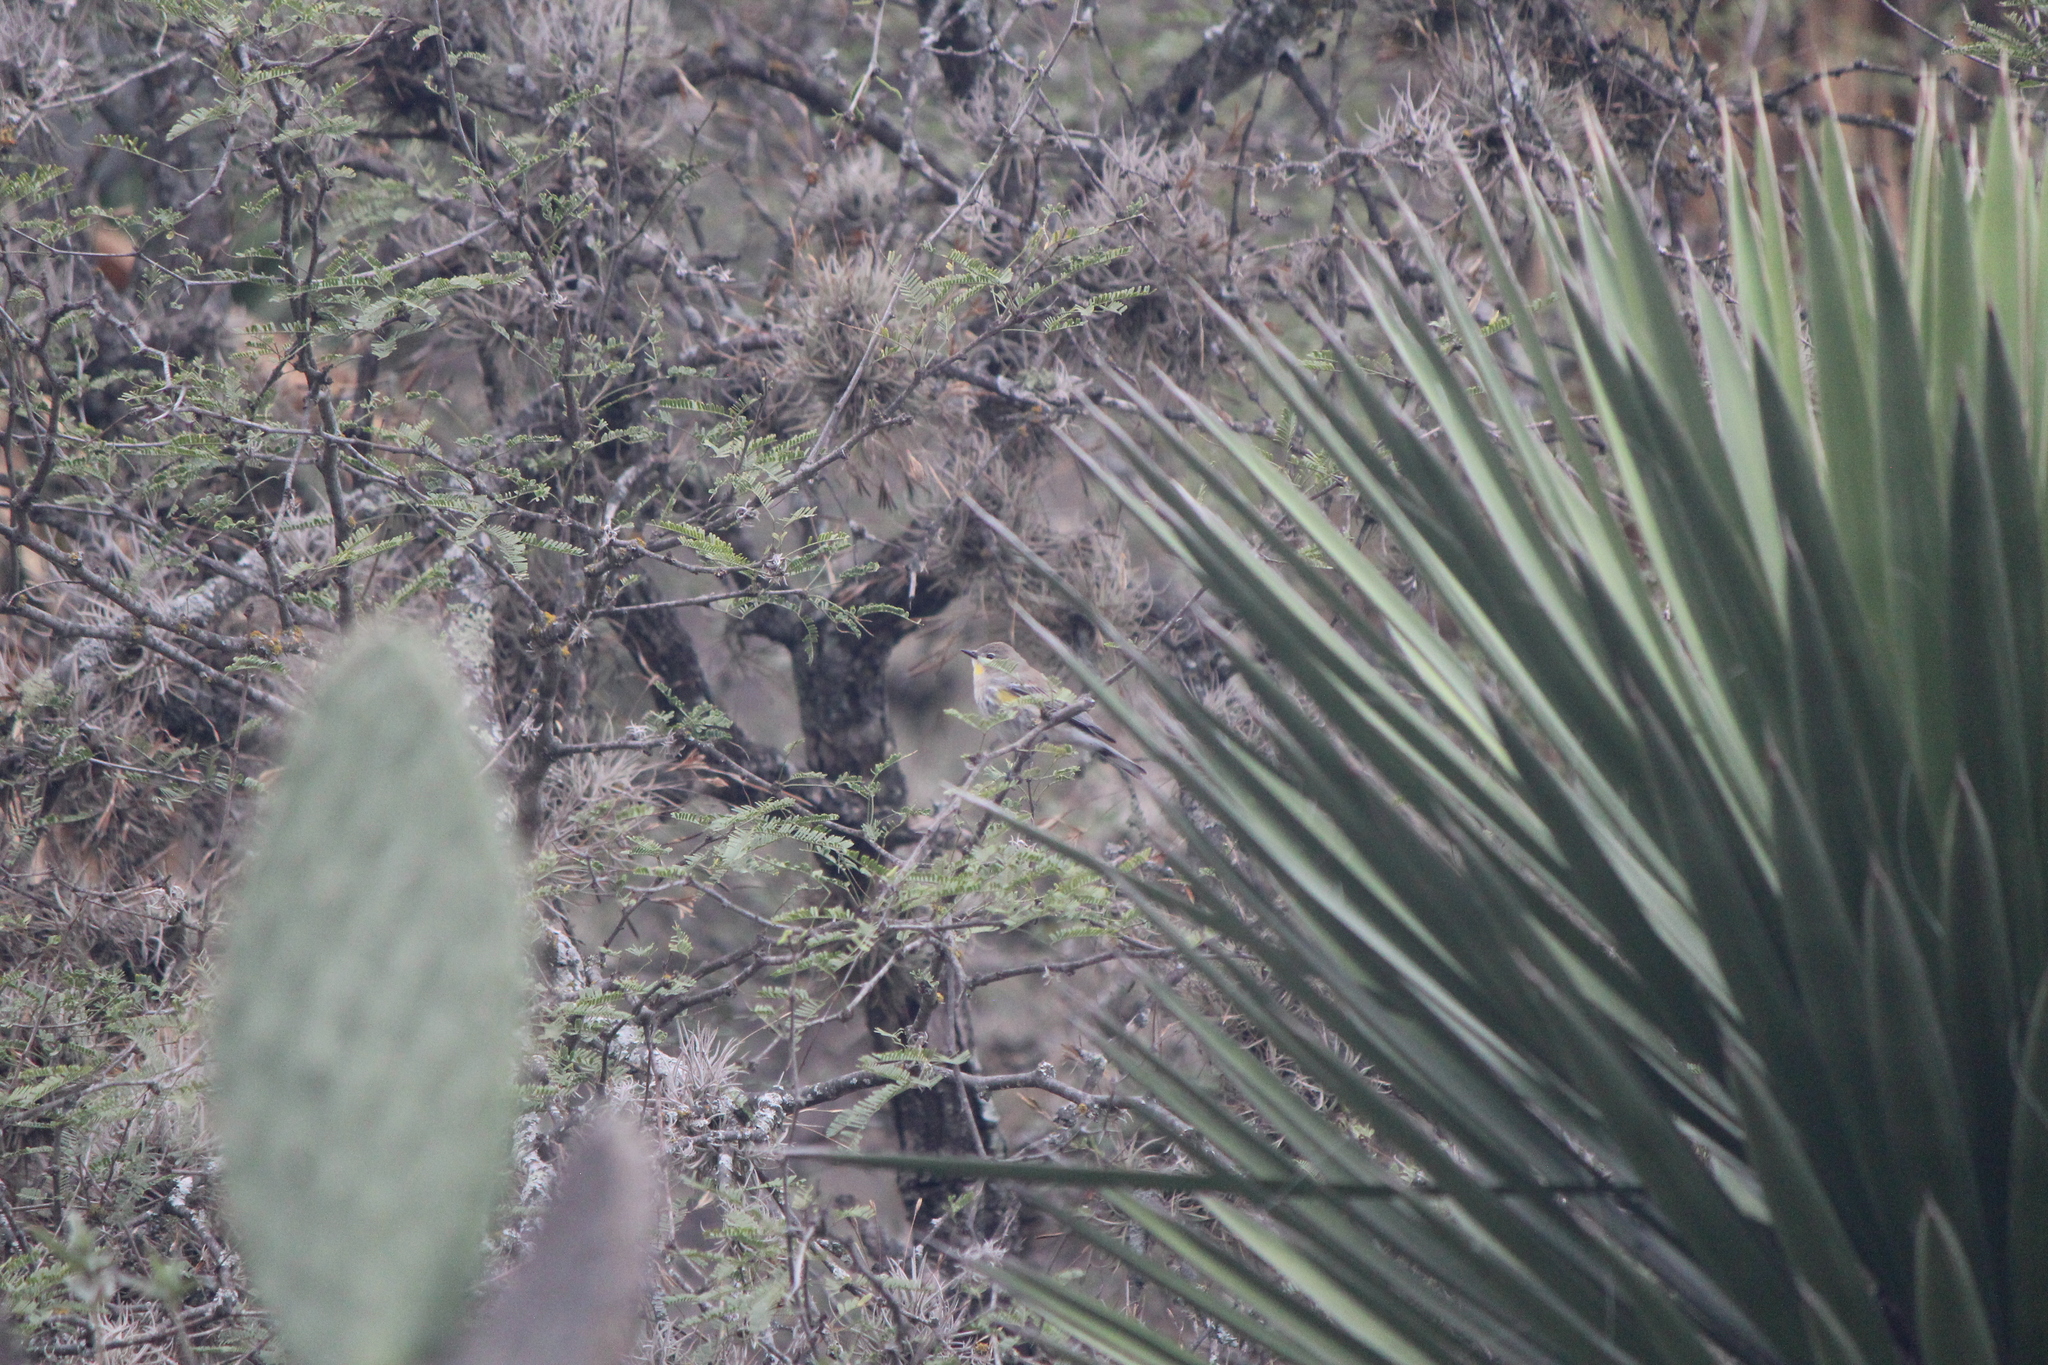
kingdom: Animalia
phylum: Chordata
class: Aves
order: Passeriformes
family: Parulidae
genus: Setophaga
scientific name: Setophaga auduboni
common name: Audubon's warbler
